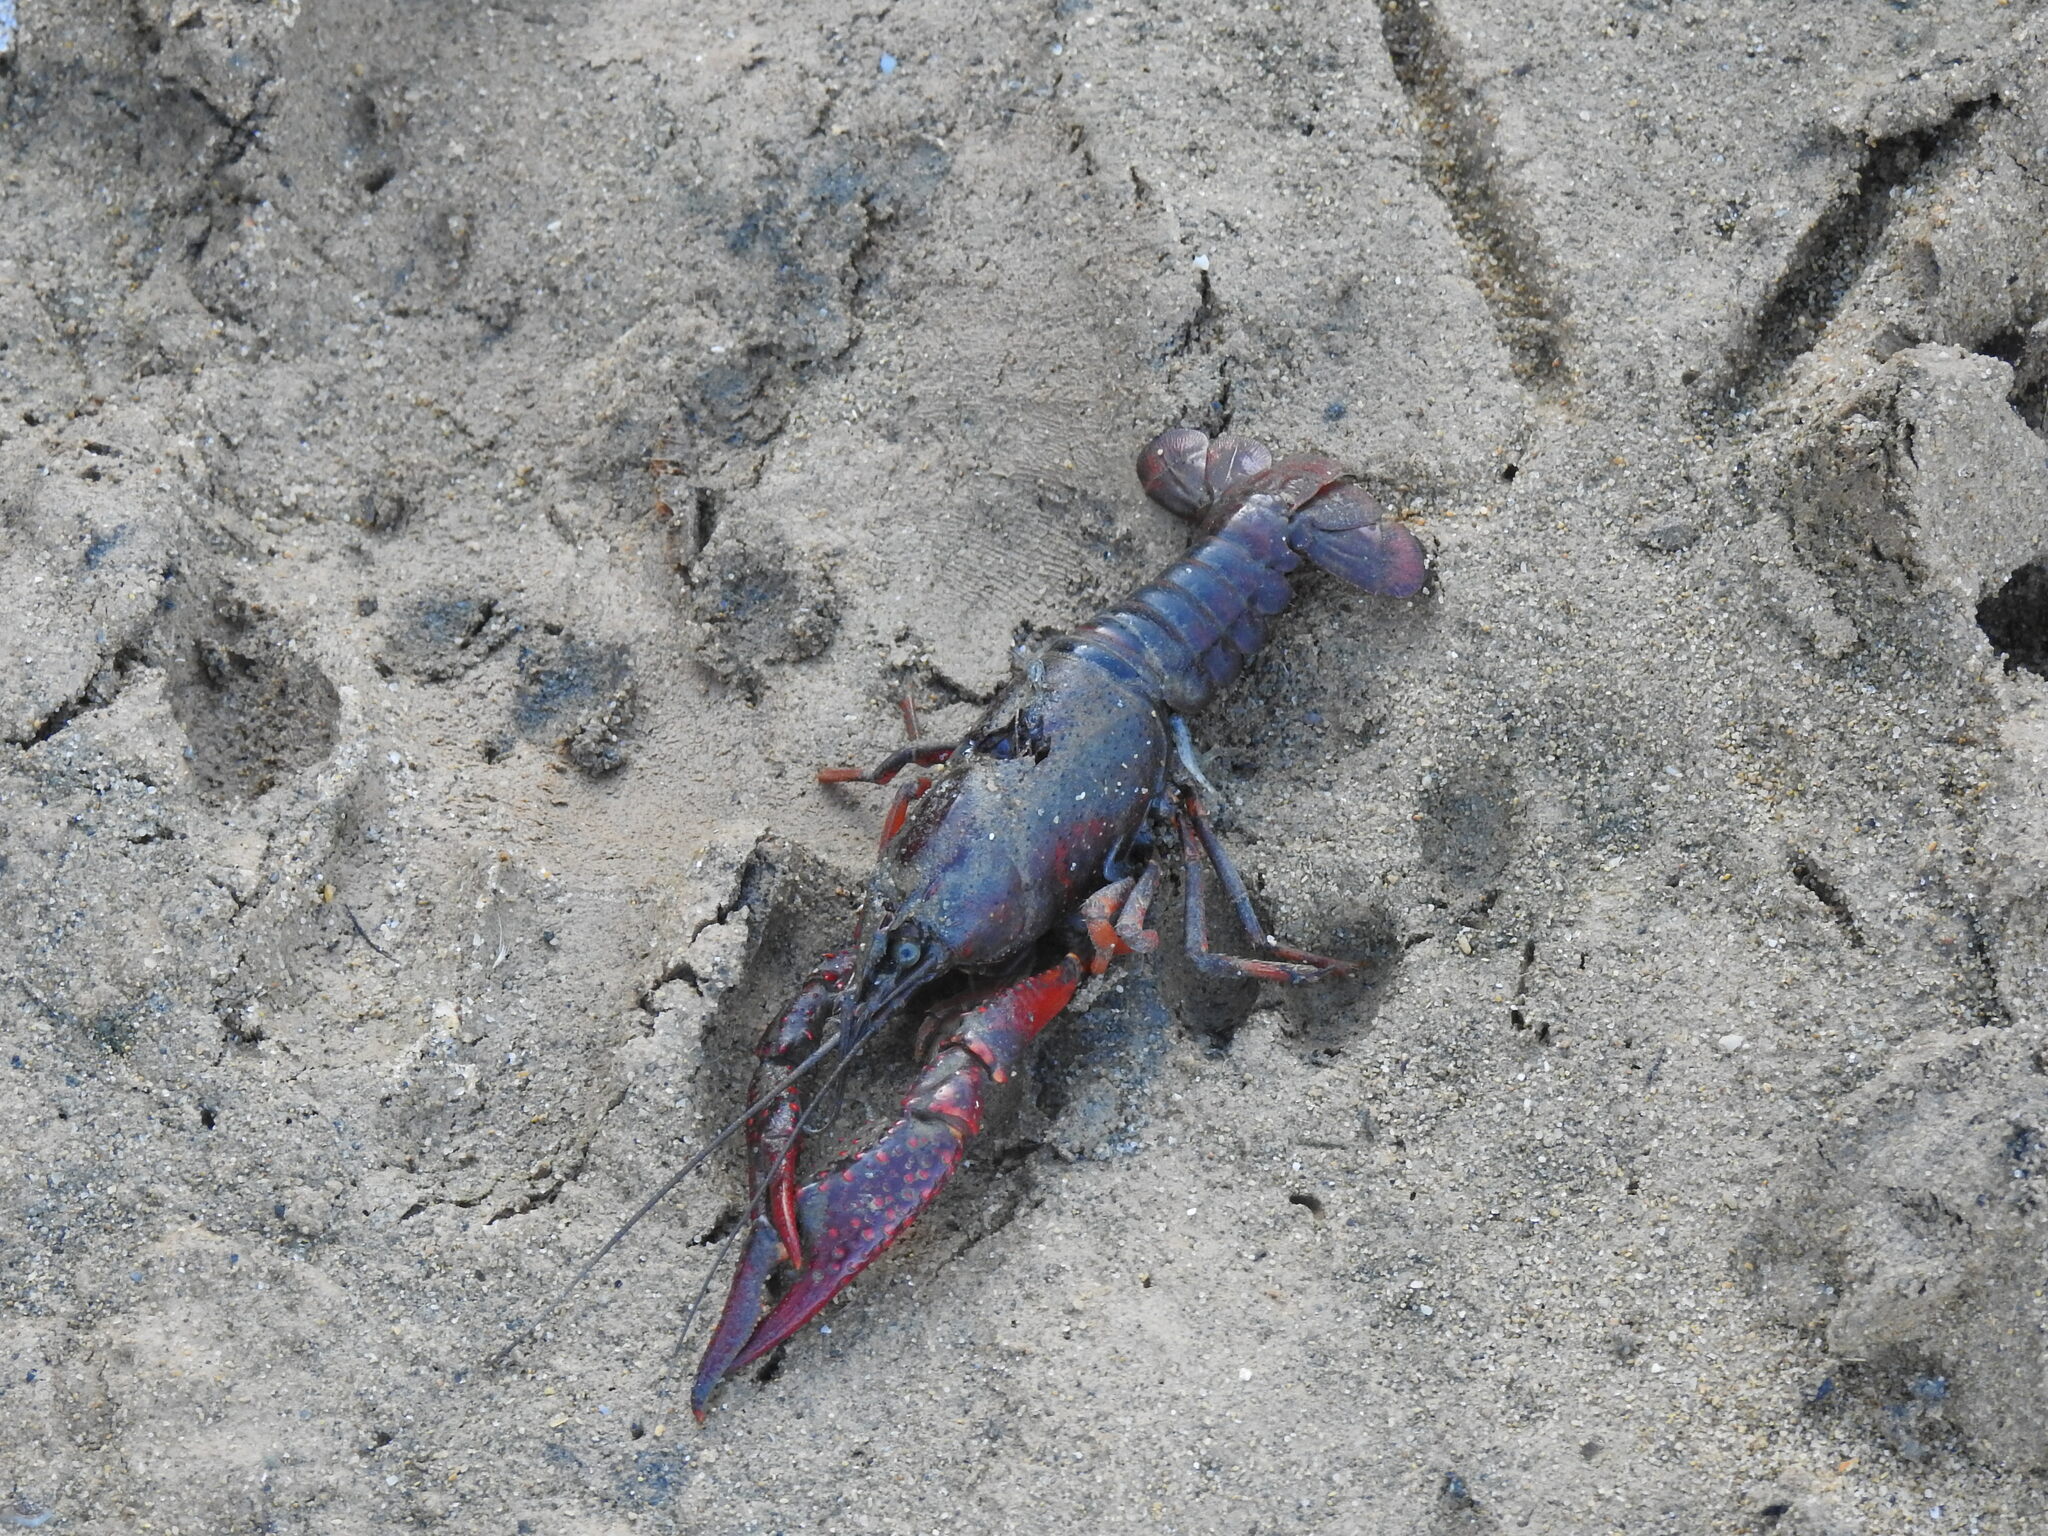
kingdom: Animalia
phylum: Arthropoda
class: Malacostraca
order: Decapoda
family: Cambaridae
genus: Procambarus
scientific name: Procambarus clarkii
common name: Red swamp crayfish
